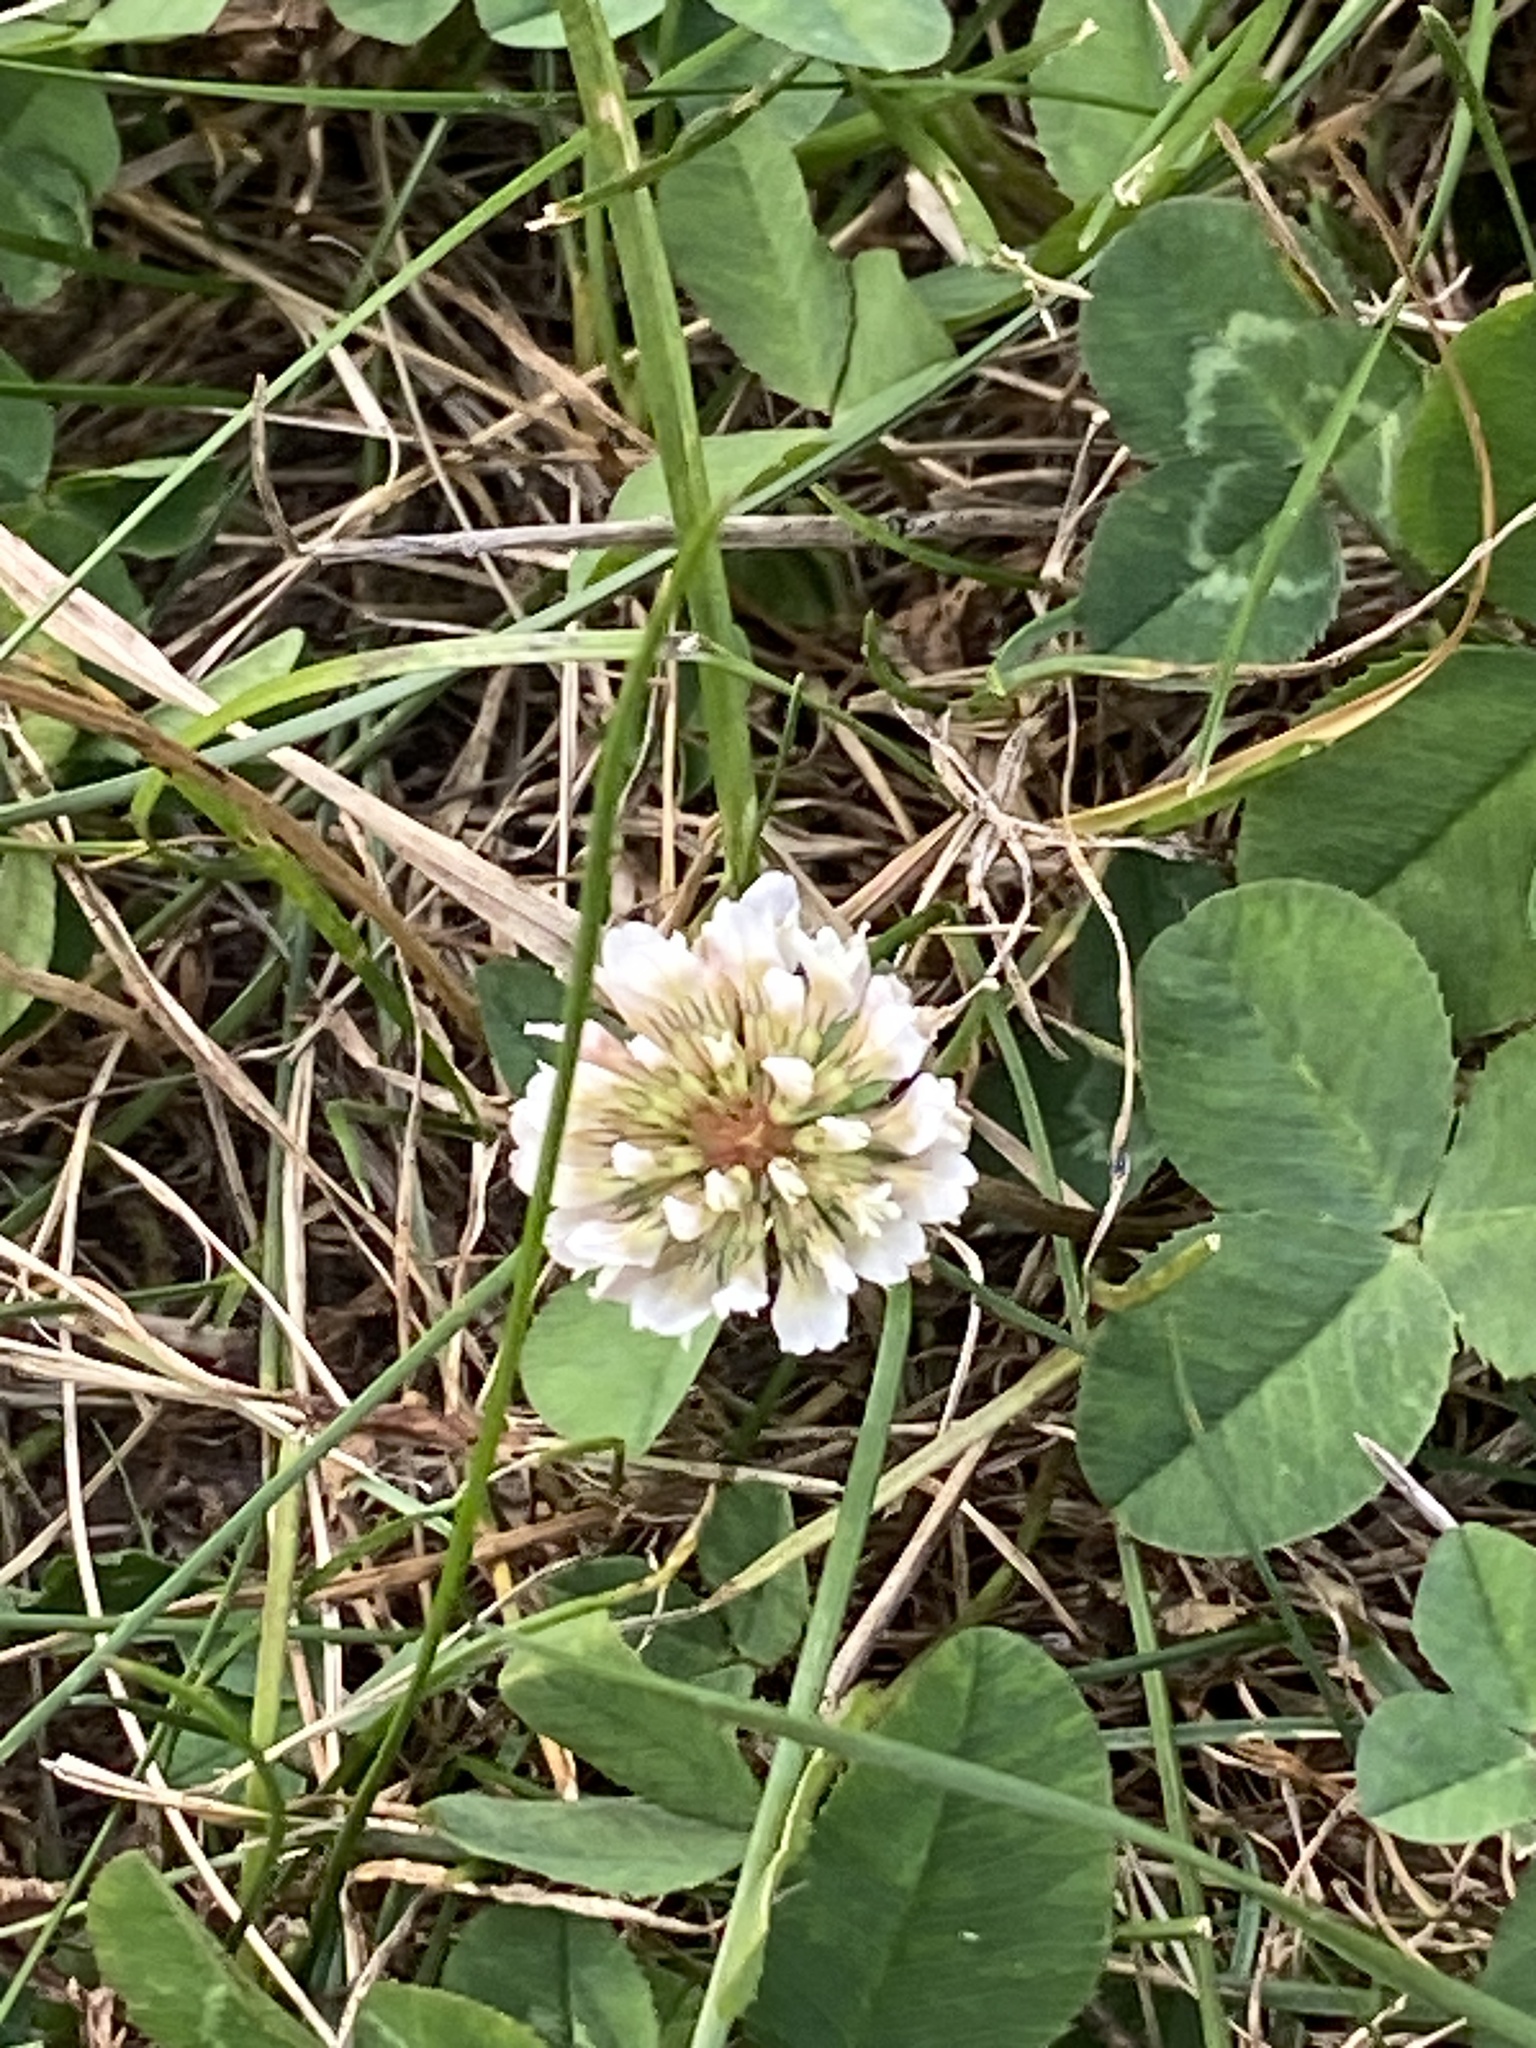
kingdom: Plantae
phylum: Tracheophyta
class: Magnoliopsida
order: Fabales
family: Fabaceae
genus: Trifolium
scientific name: Trifolium repens
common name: White clover
